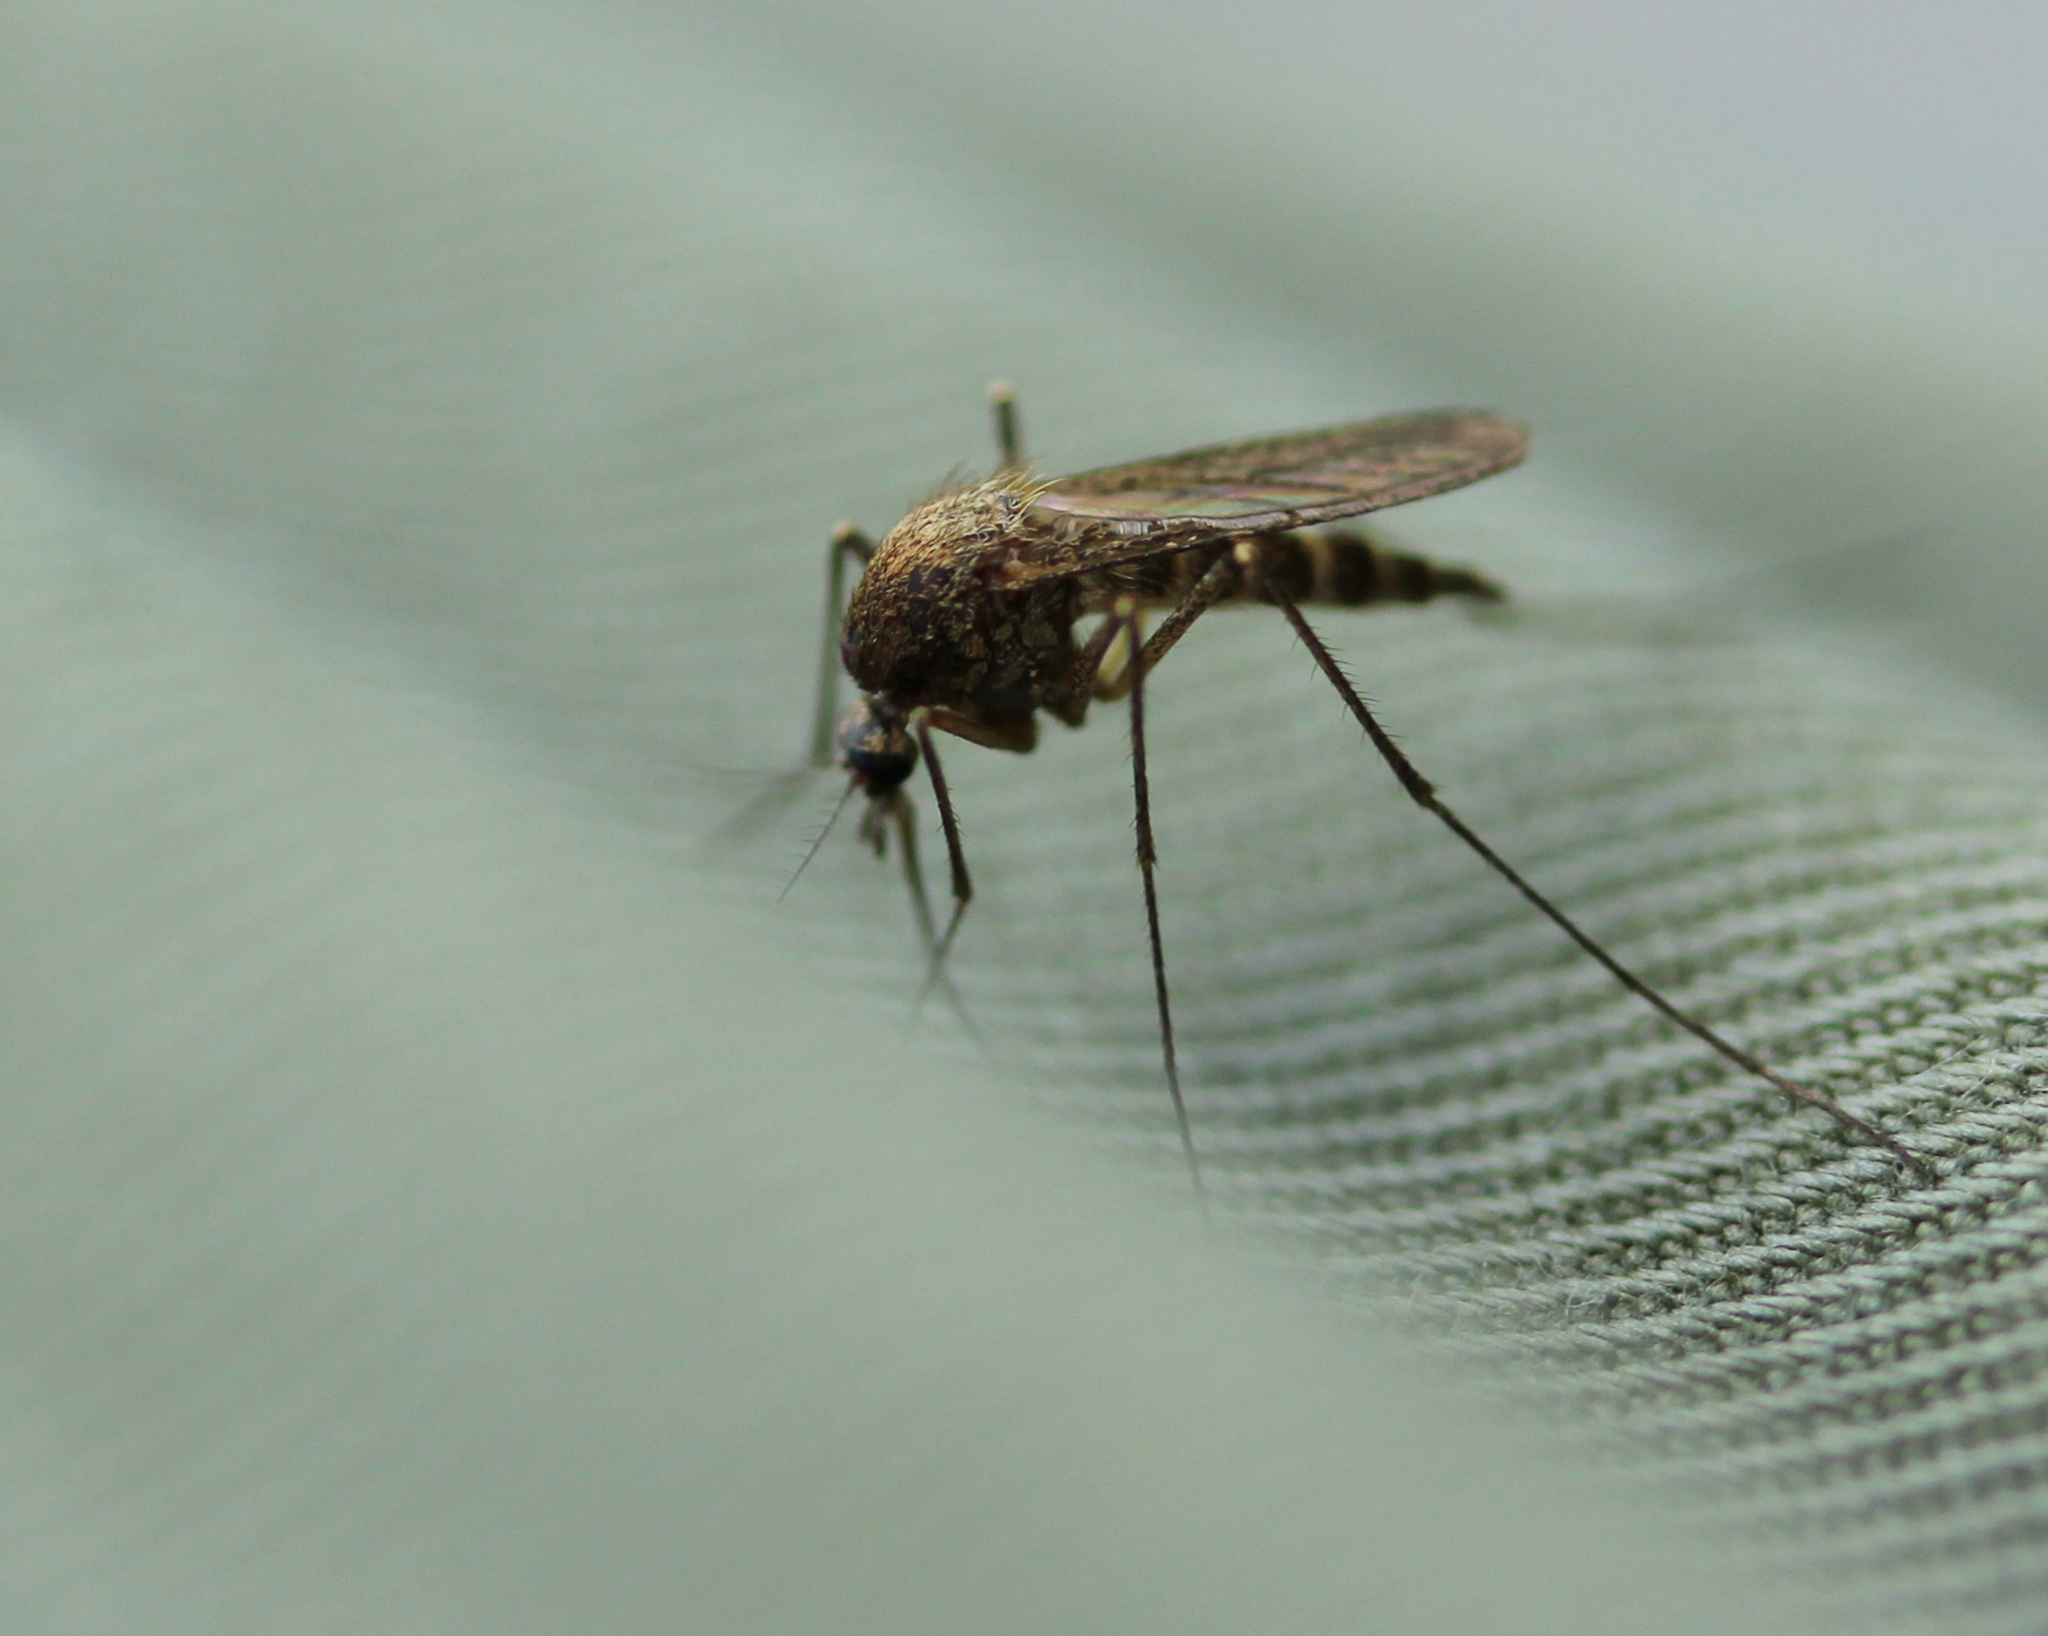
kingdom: Animalia
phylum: Arthropoda
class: Insecta
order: Diptera
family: Culicidae
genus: Aedes
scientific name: Aedes
